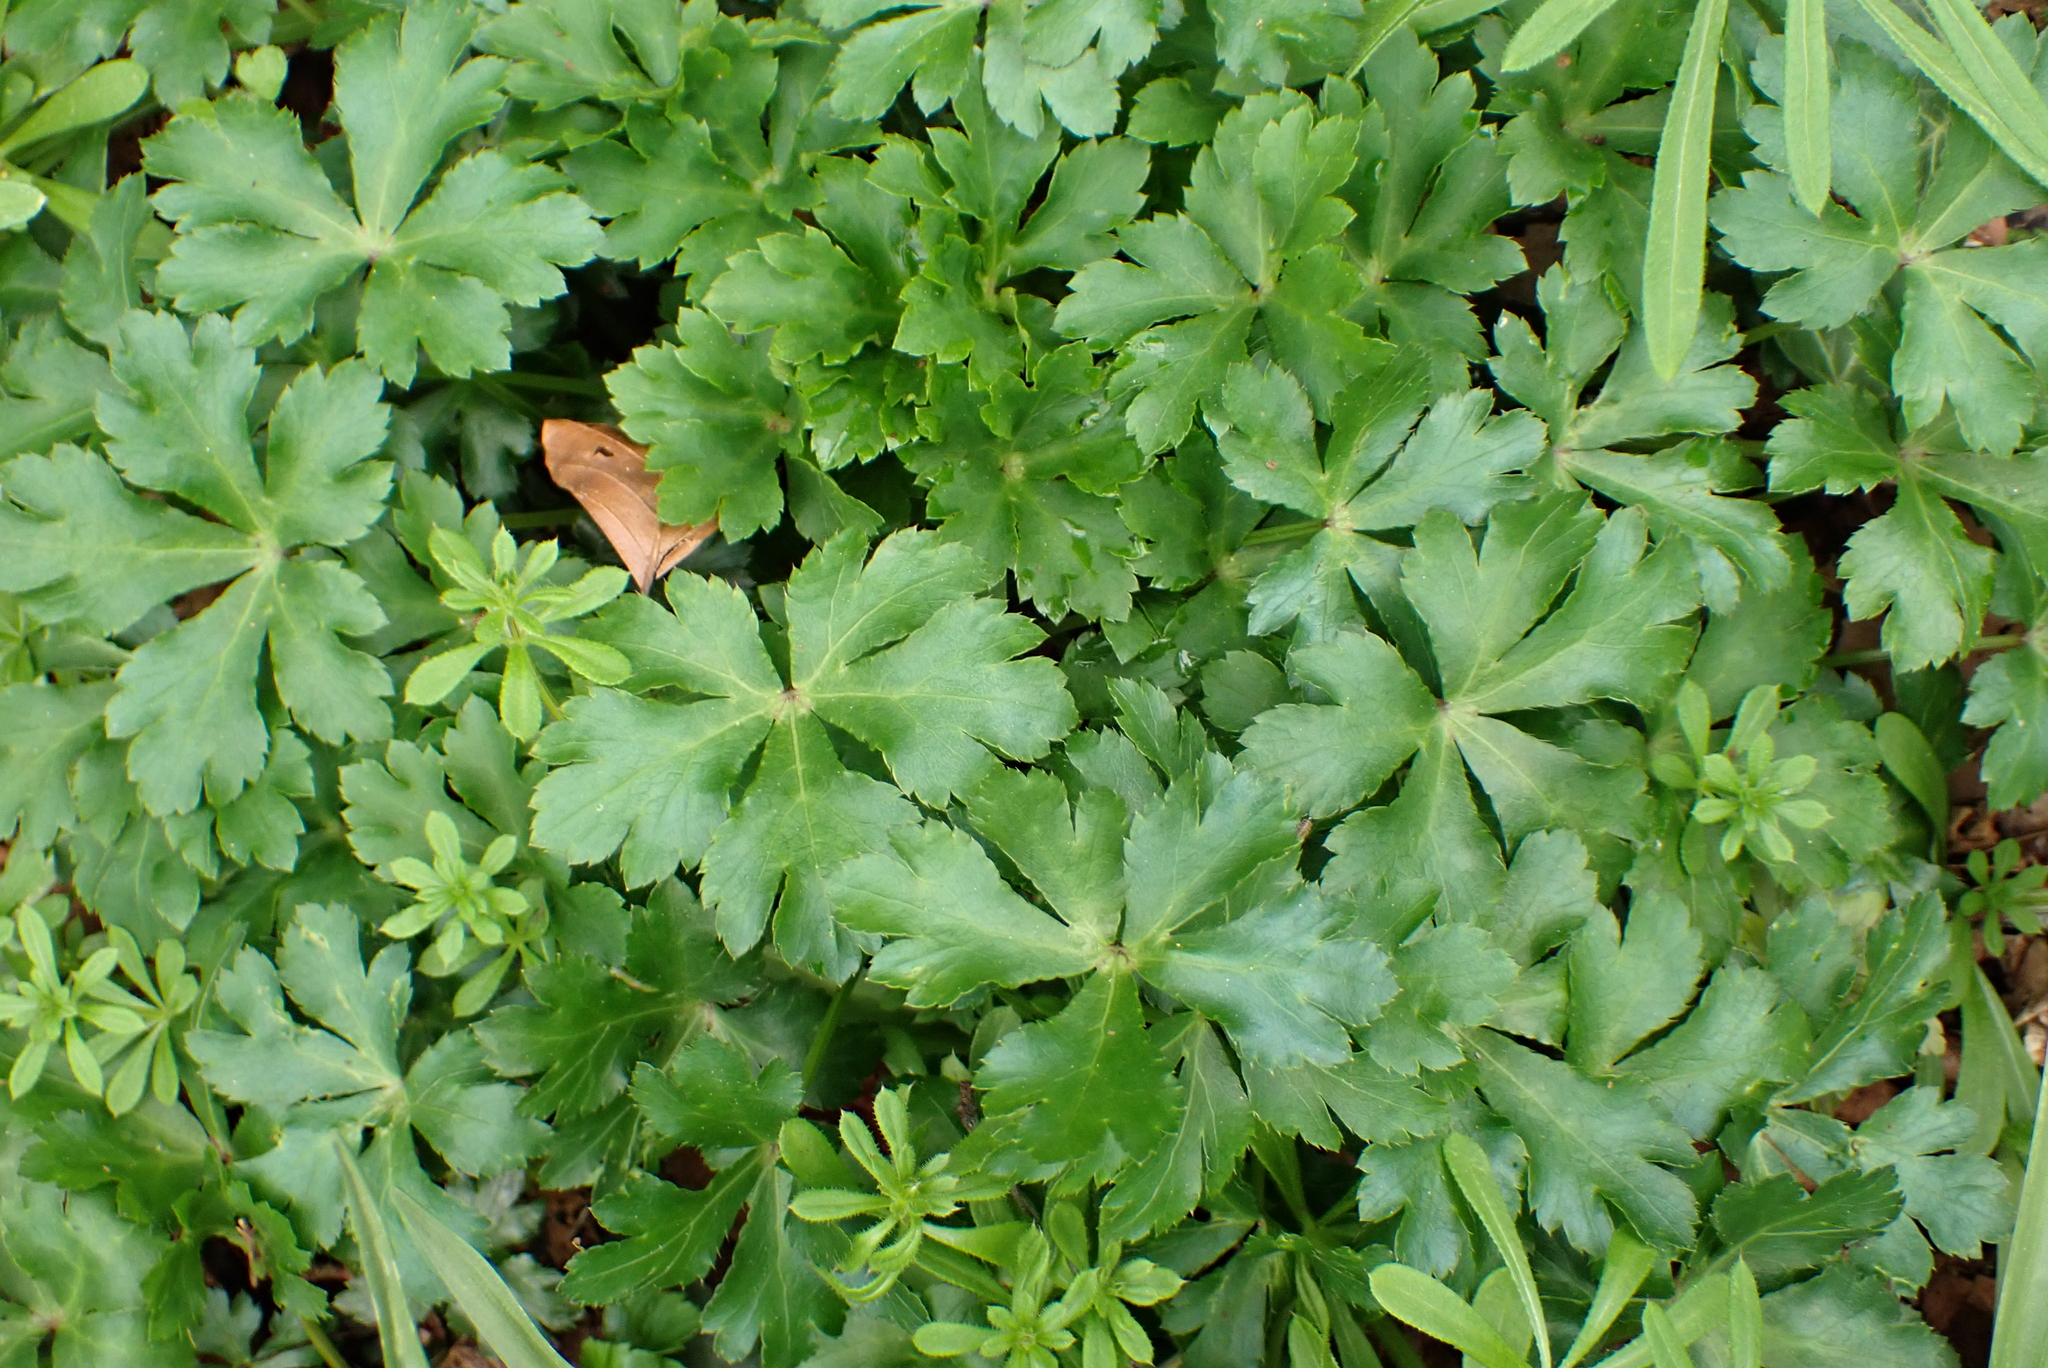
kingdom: Plantae
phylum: Tracheophyta
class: Magnoliopsida
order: Apiales
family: Apiaceae
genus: Sanicula
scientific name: Sanicula europaea
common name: Sanicle
